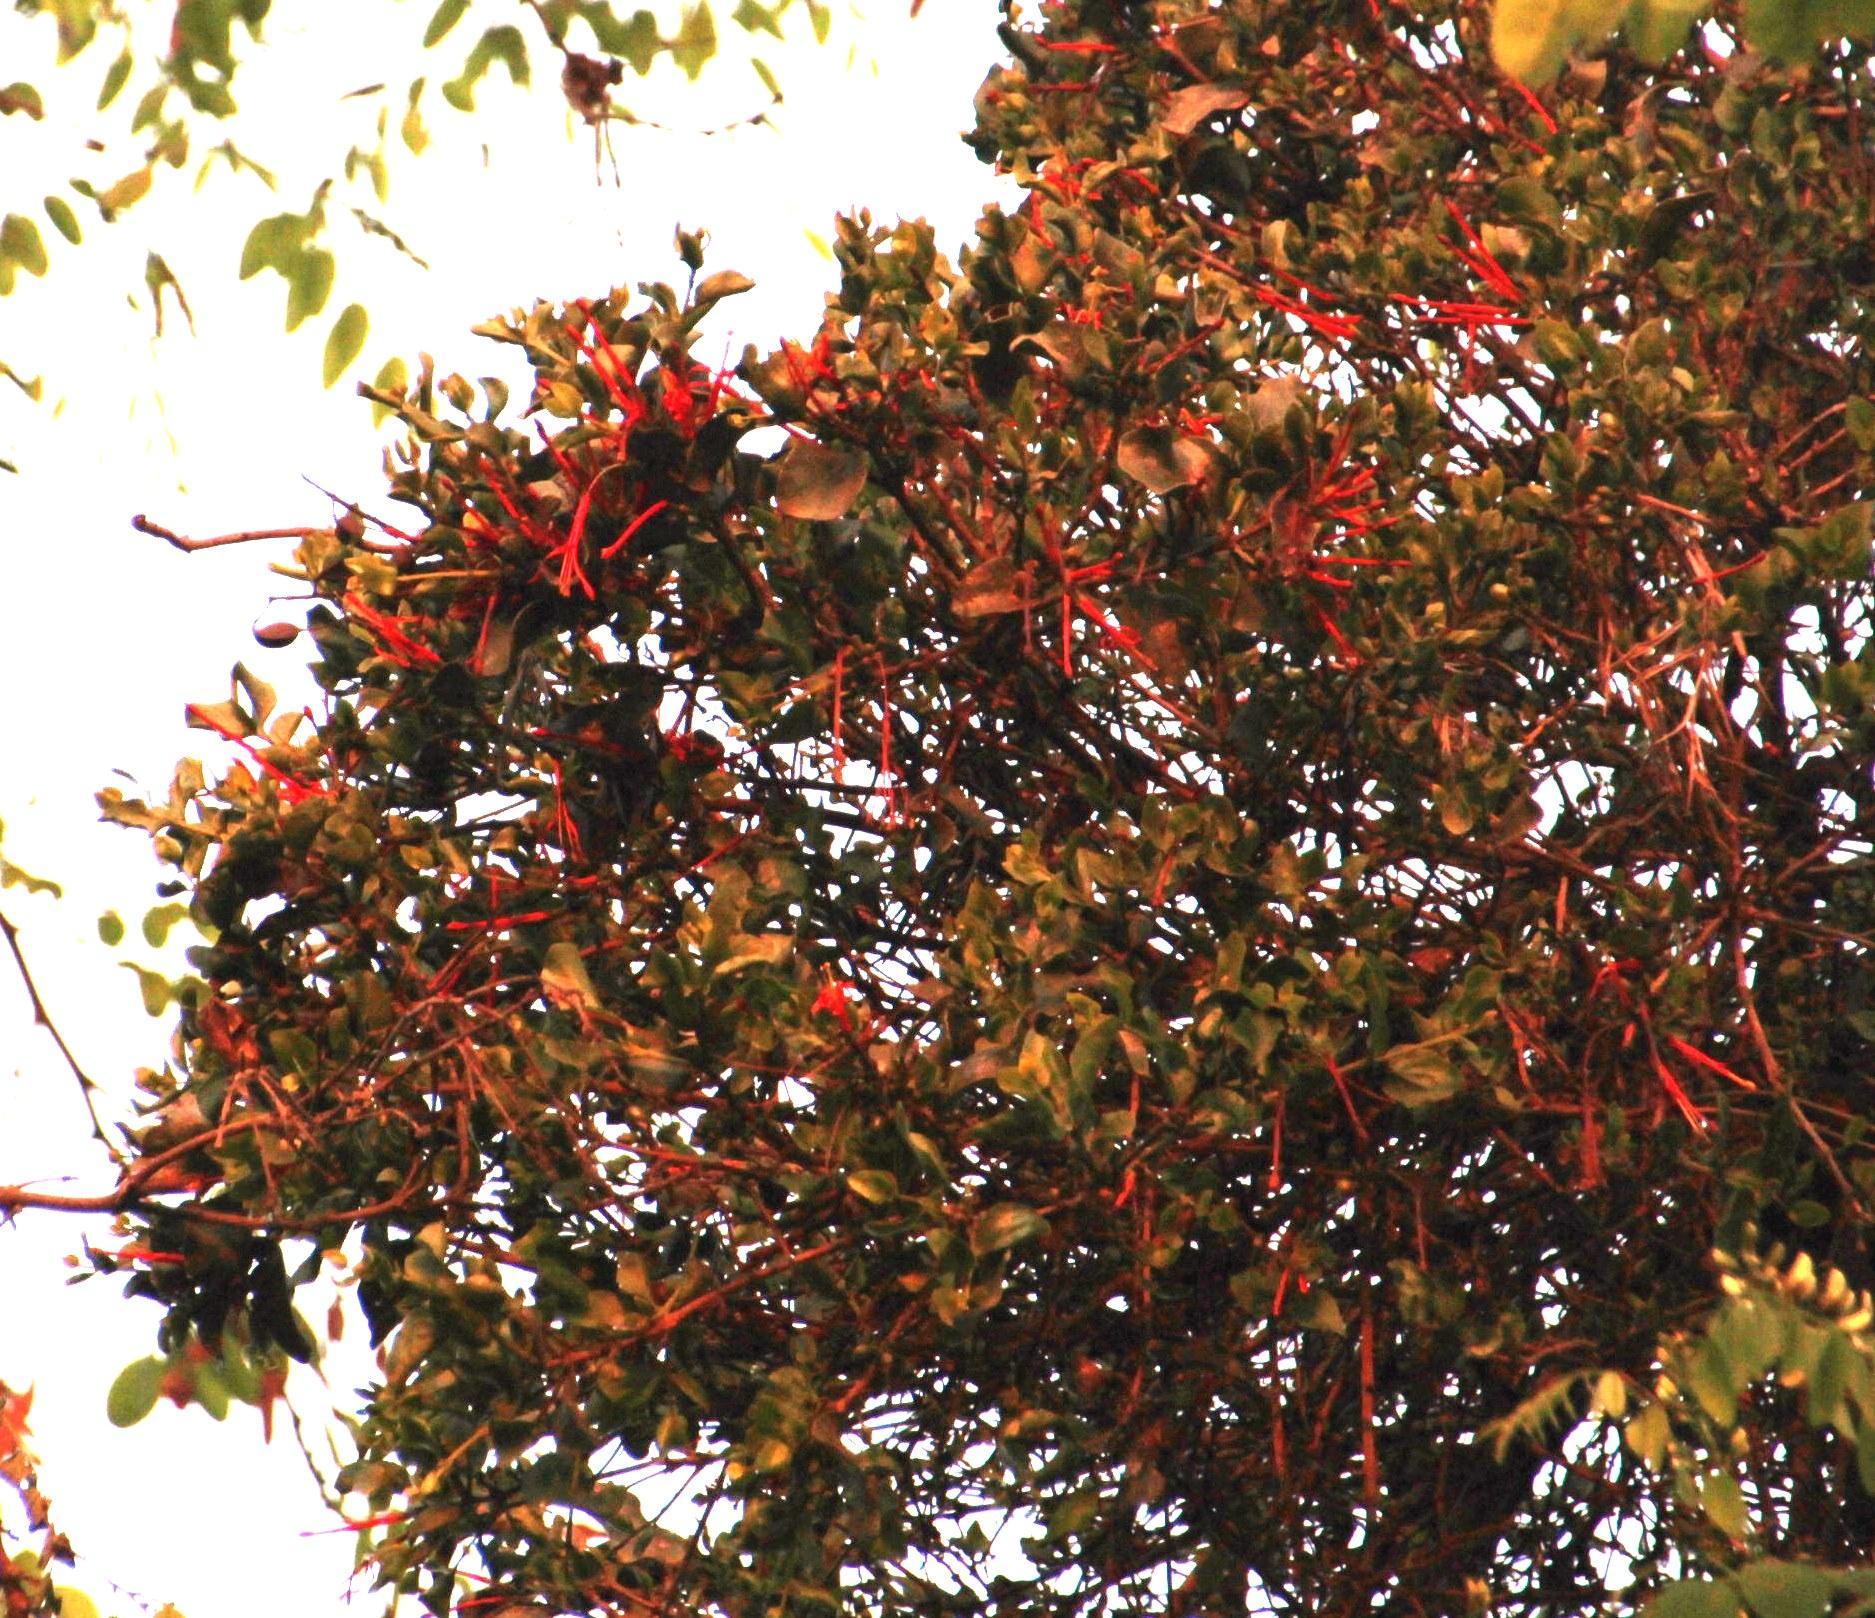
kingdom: Plantae
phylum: Tracheophyta
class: Magnoliopsida
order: Santalales
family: Loranthaceae
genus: Tristerix
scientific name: Tristerix corymbosus
